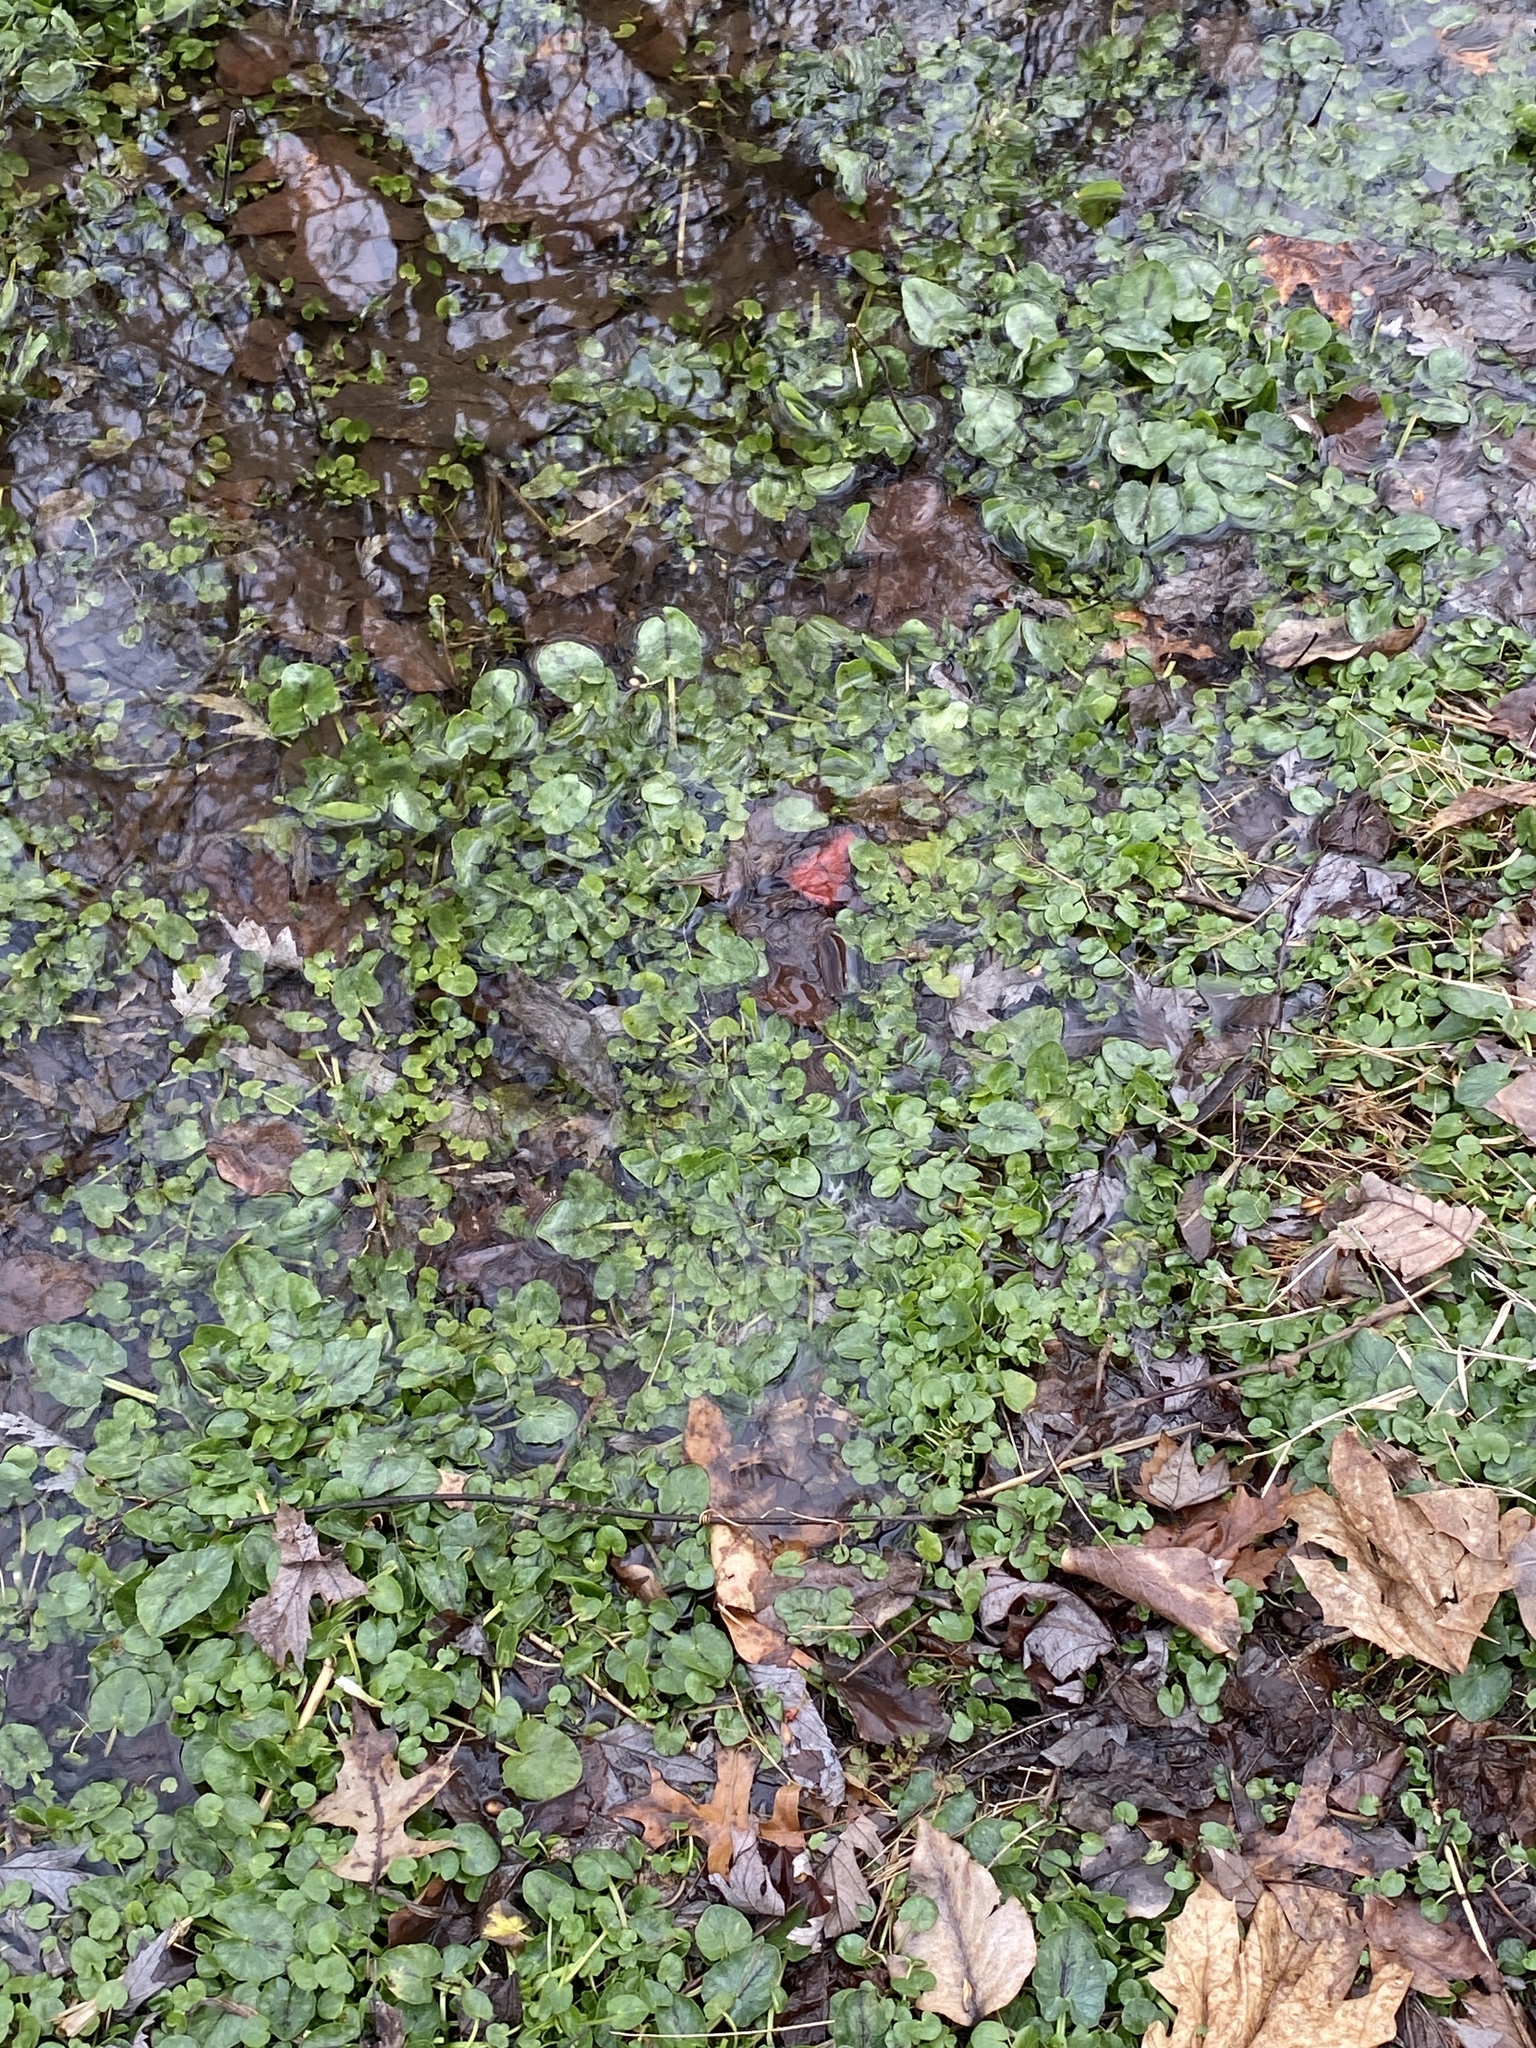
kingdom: Plantae
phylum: Tracheophyta
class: Magnoliopsida
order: Ranunculales
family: Ranunculaceae
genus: Ficaria
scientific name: Ficaria verna
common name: Lesser celandine
